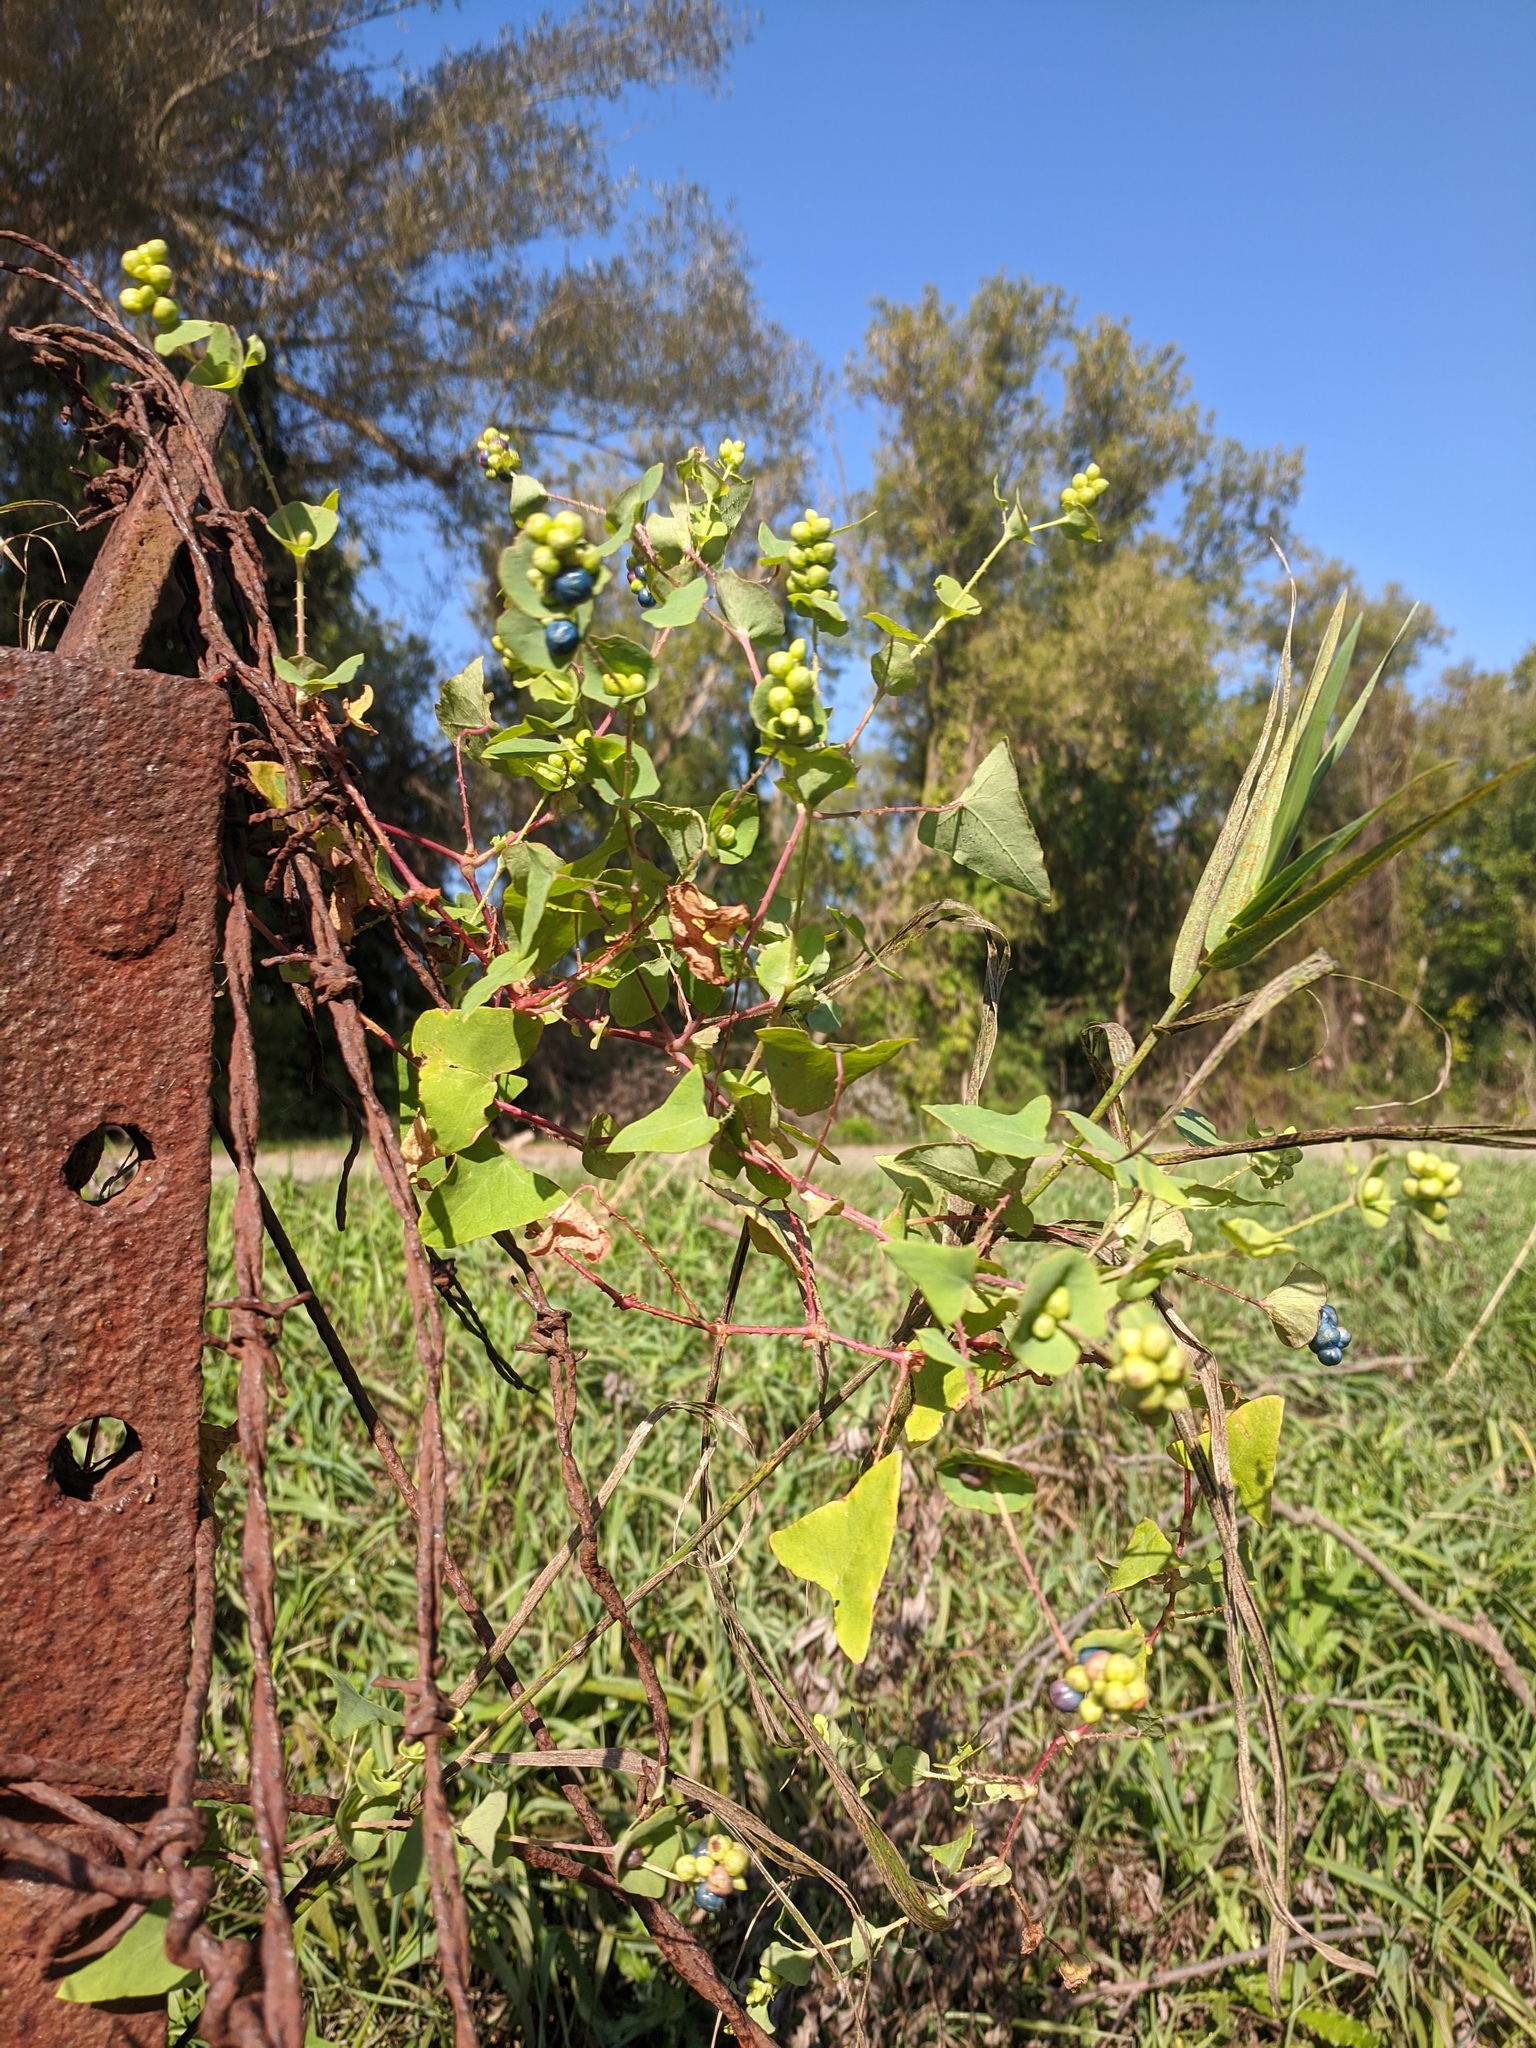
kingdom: Plantae
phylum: Tracheophyta
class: Magnoliopsida
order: Caryophyllales
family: Polygonaceae
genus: Persicaria
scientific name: Persicaria perfoliata
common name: Asiatic tearthumb
